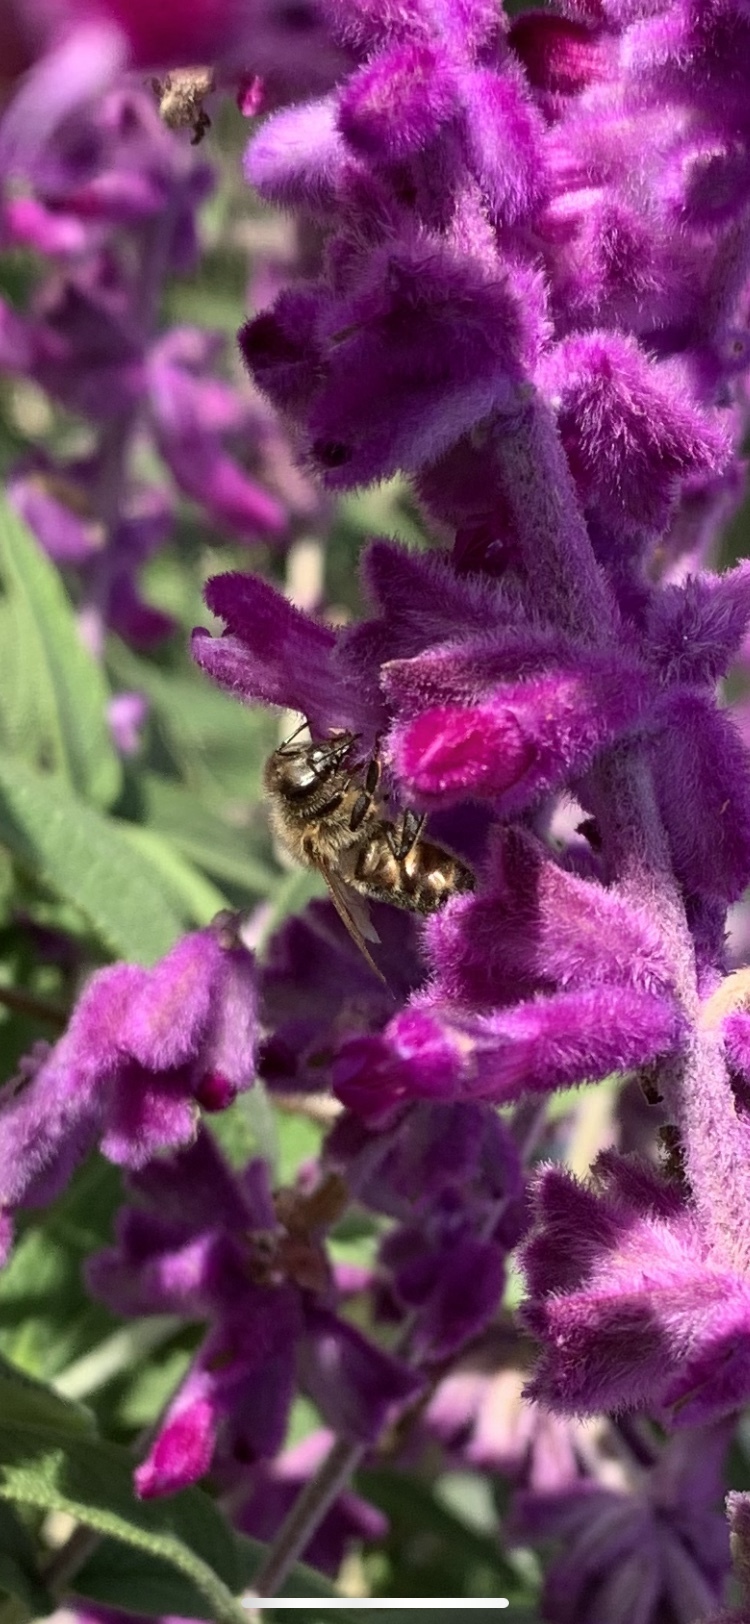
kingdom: Animalia
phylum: Arthropoda
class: Insecta
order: Hymenoptera
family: Apidae
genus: Apis
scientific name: Apis mellifera
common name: Honey bee
